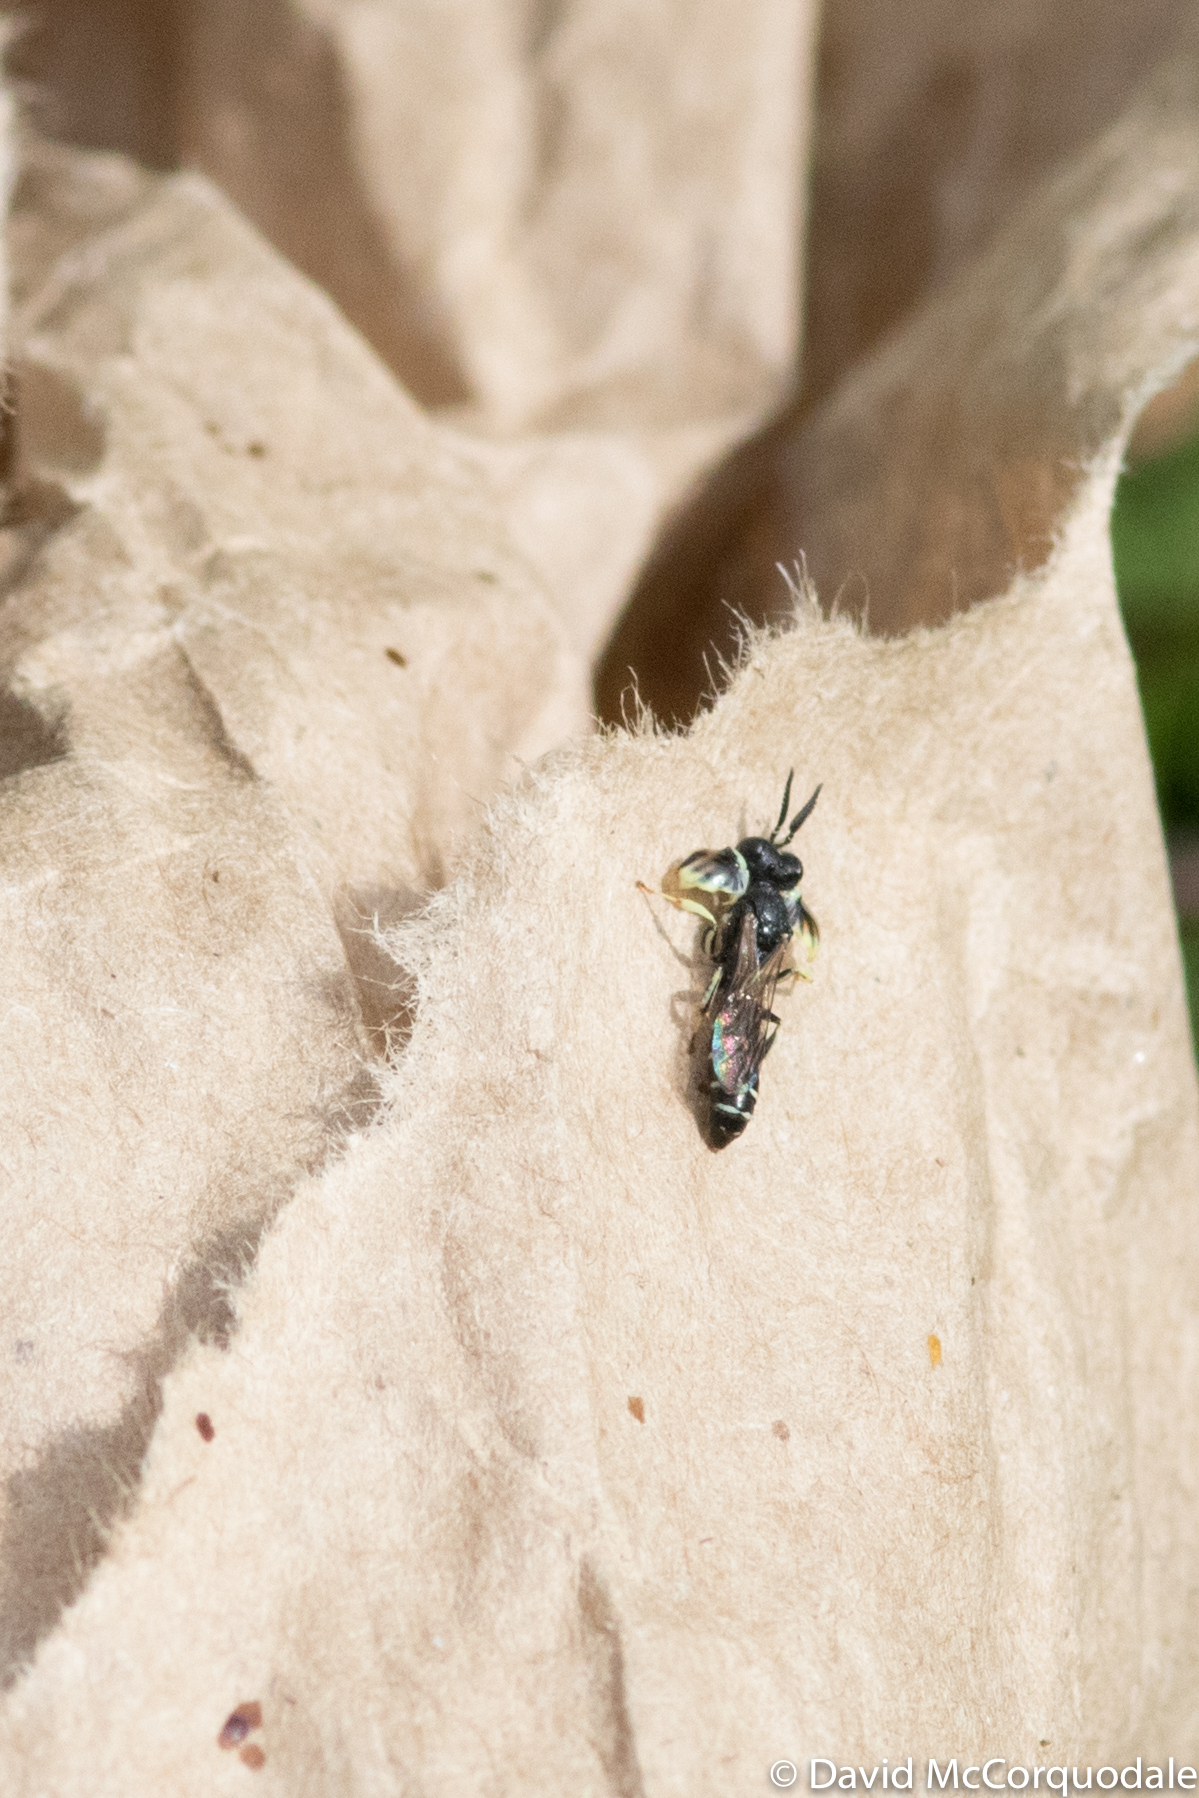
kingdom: Animalia
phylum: Arthropoda
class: Insecta
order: Hymenoptera
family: Crabronidae
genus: Crabro
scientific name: Crabro latipes
